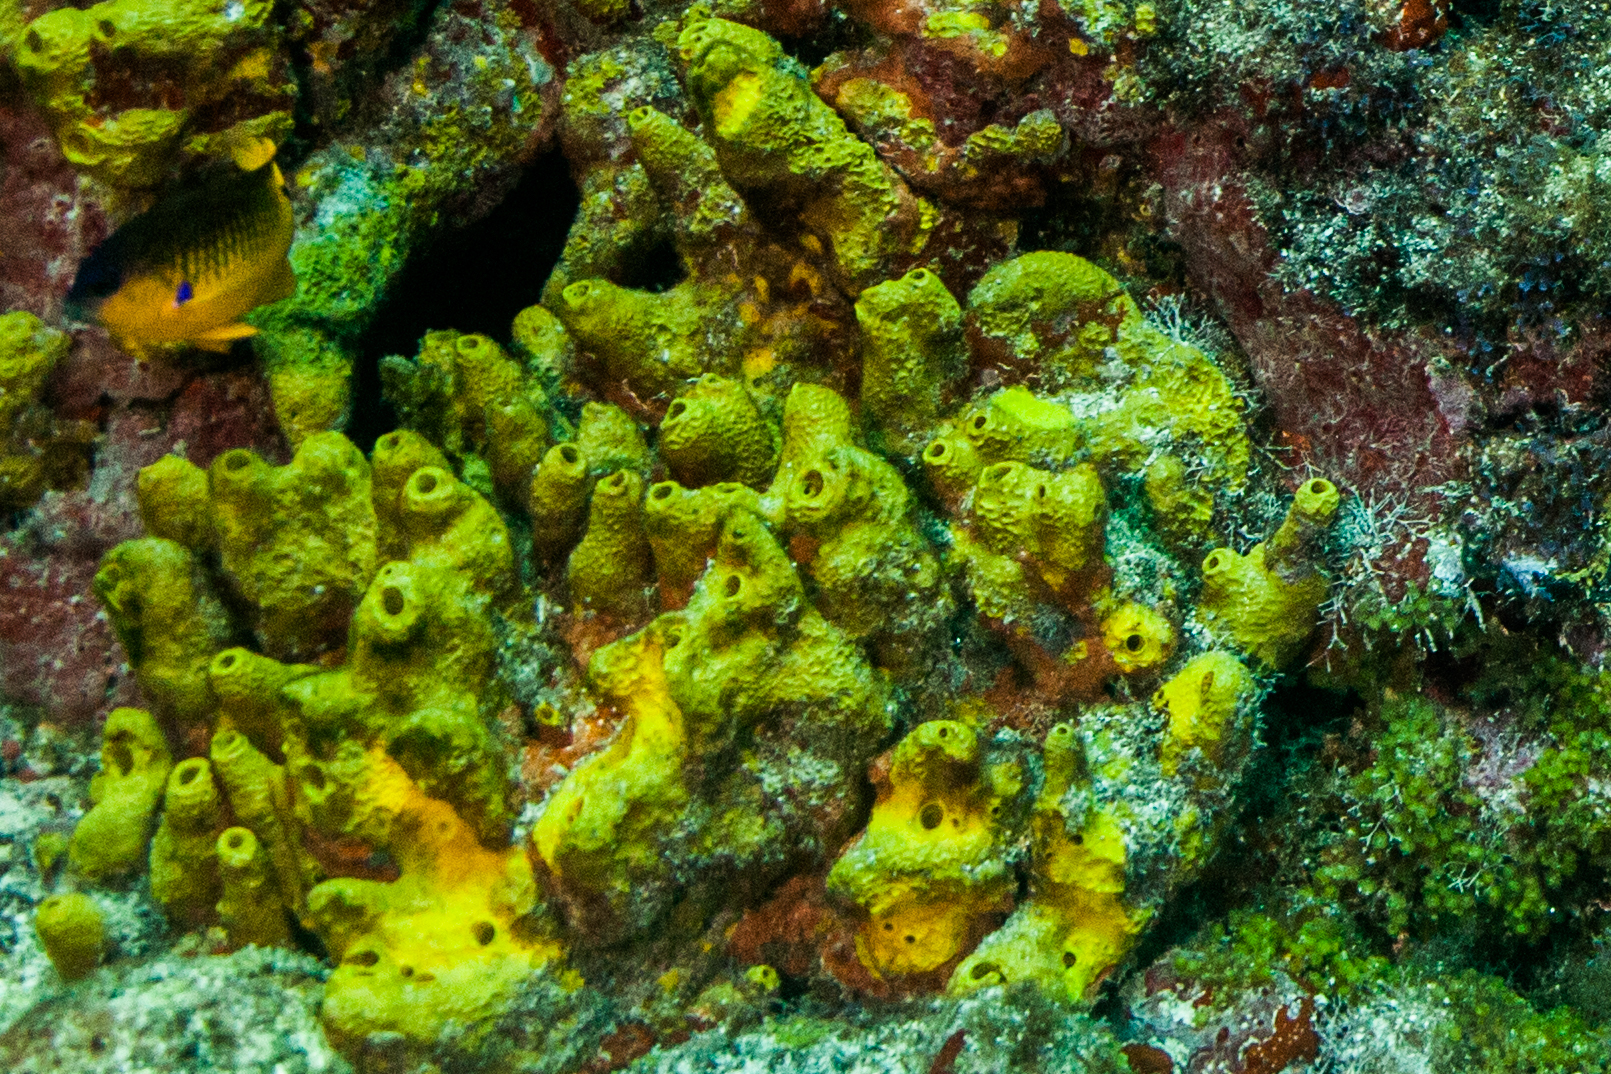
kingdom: Animalia
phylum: Porifera
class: Demospongiae
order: Verongiida
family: Aplysinidae
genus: Aiolochroia
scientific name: Aiolochroia crassa
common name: Branching tube sponge
